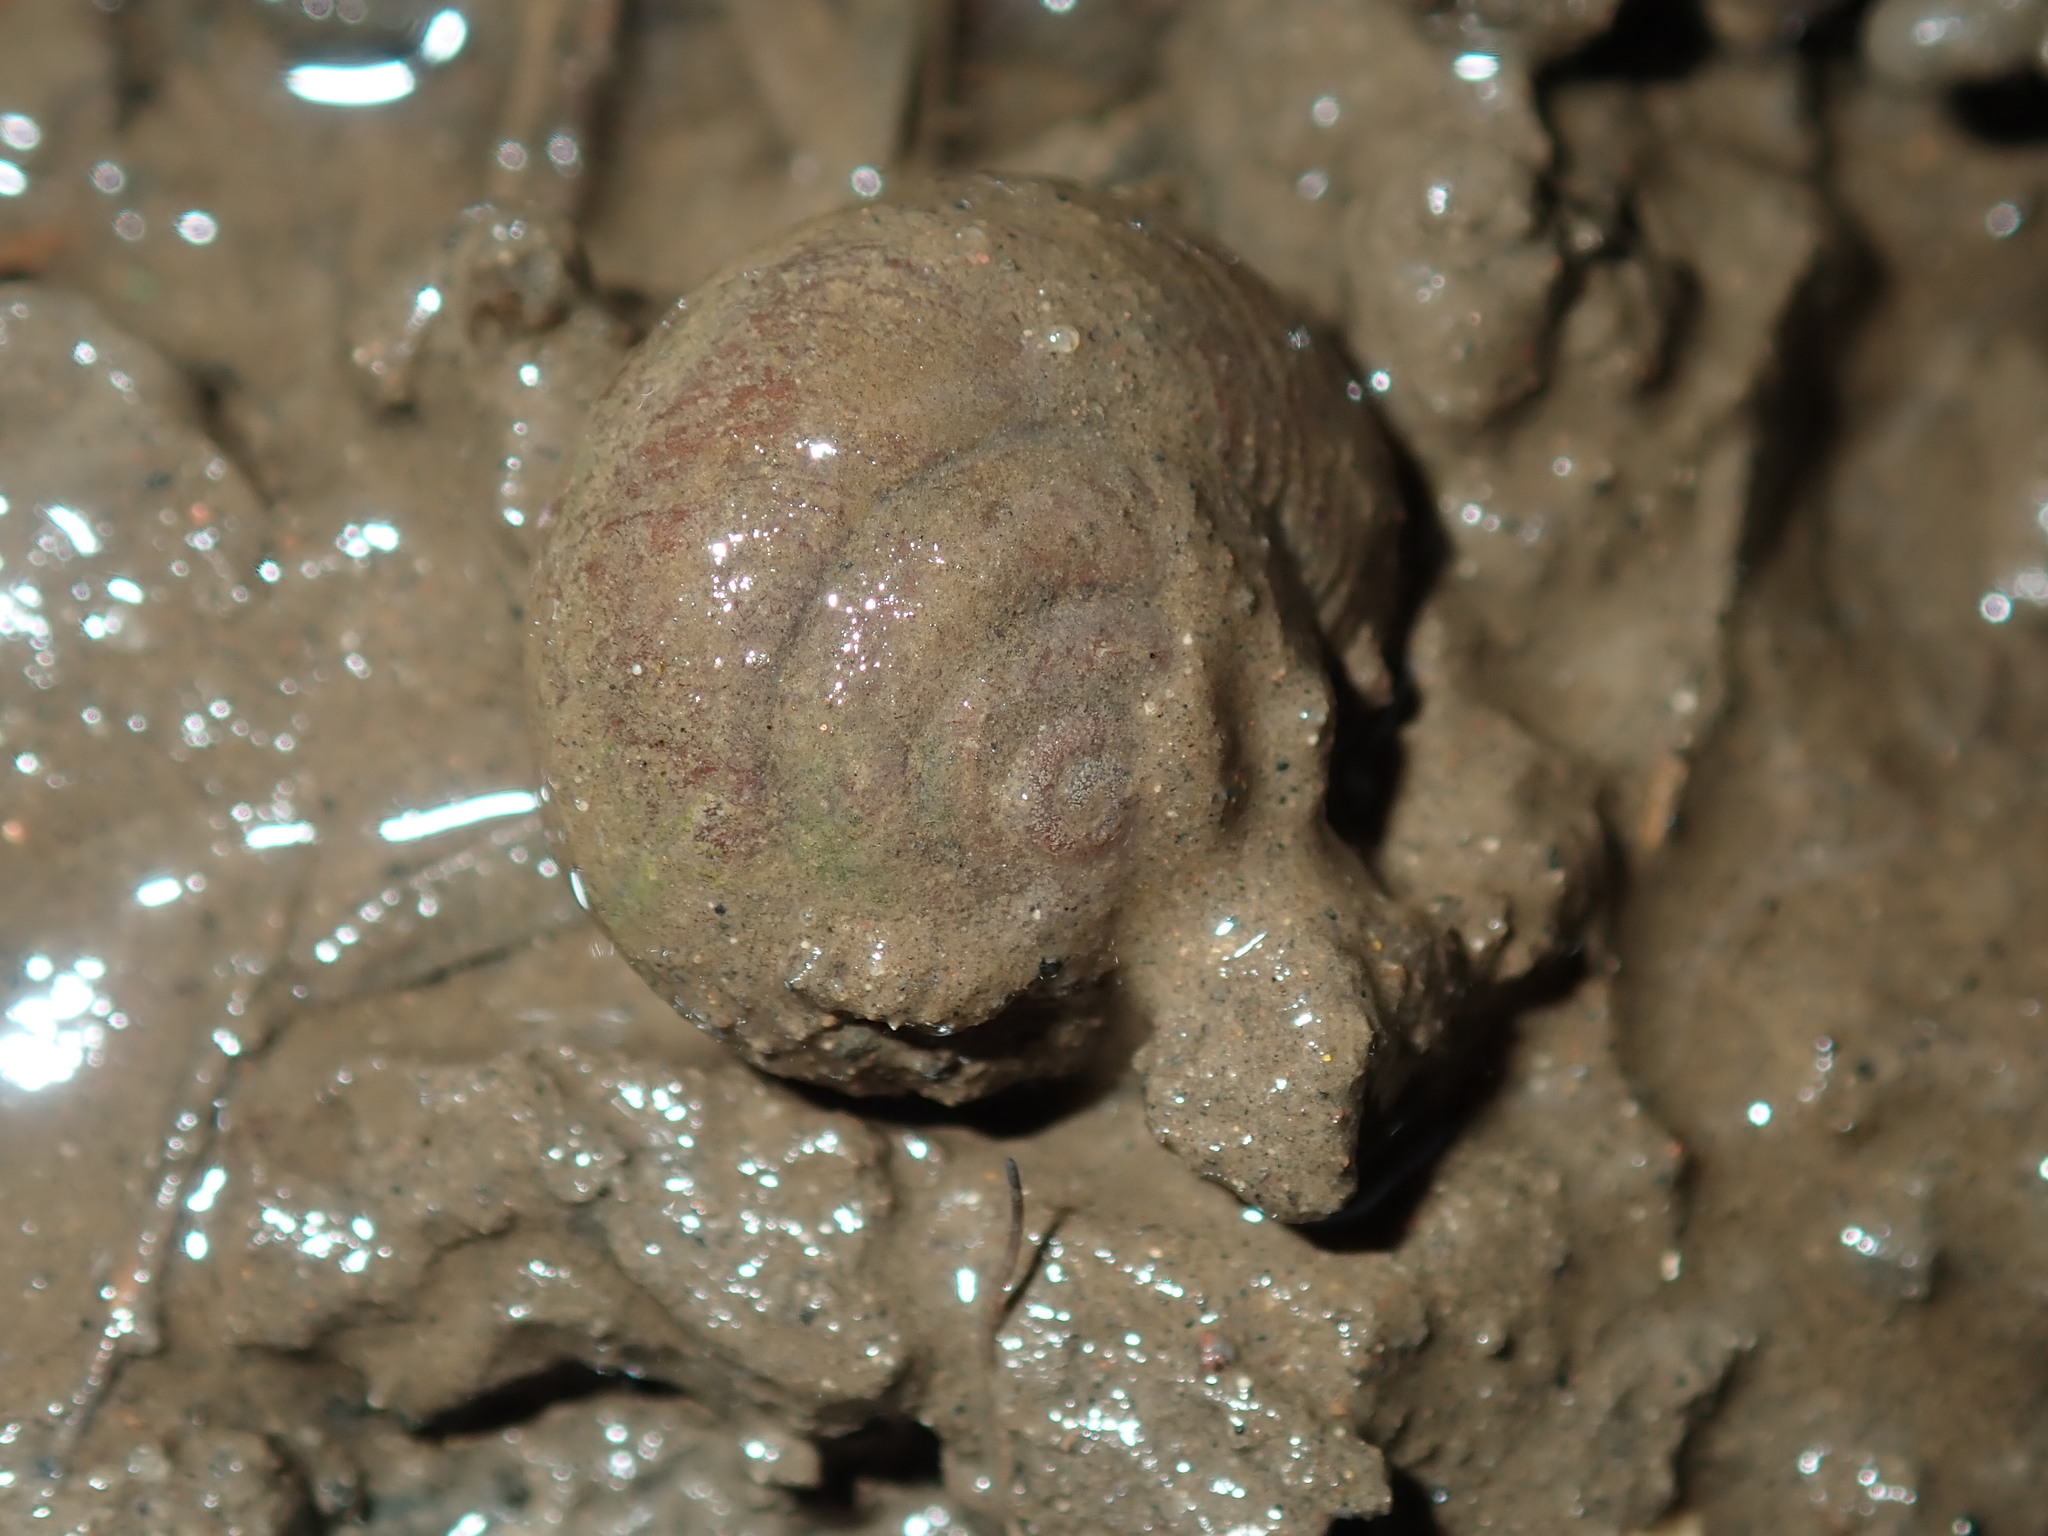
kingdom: Animalia
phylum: Mollusca
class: Gastropoda
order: Stylommatophora
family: Camaenidae
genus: Sauroconcha
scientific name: Sauroconcha sheai
